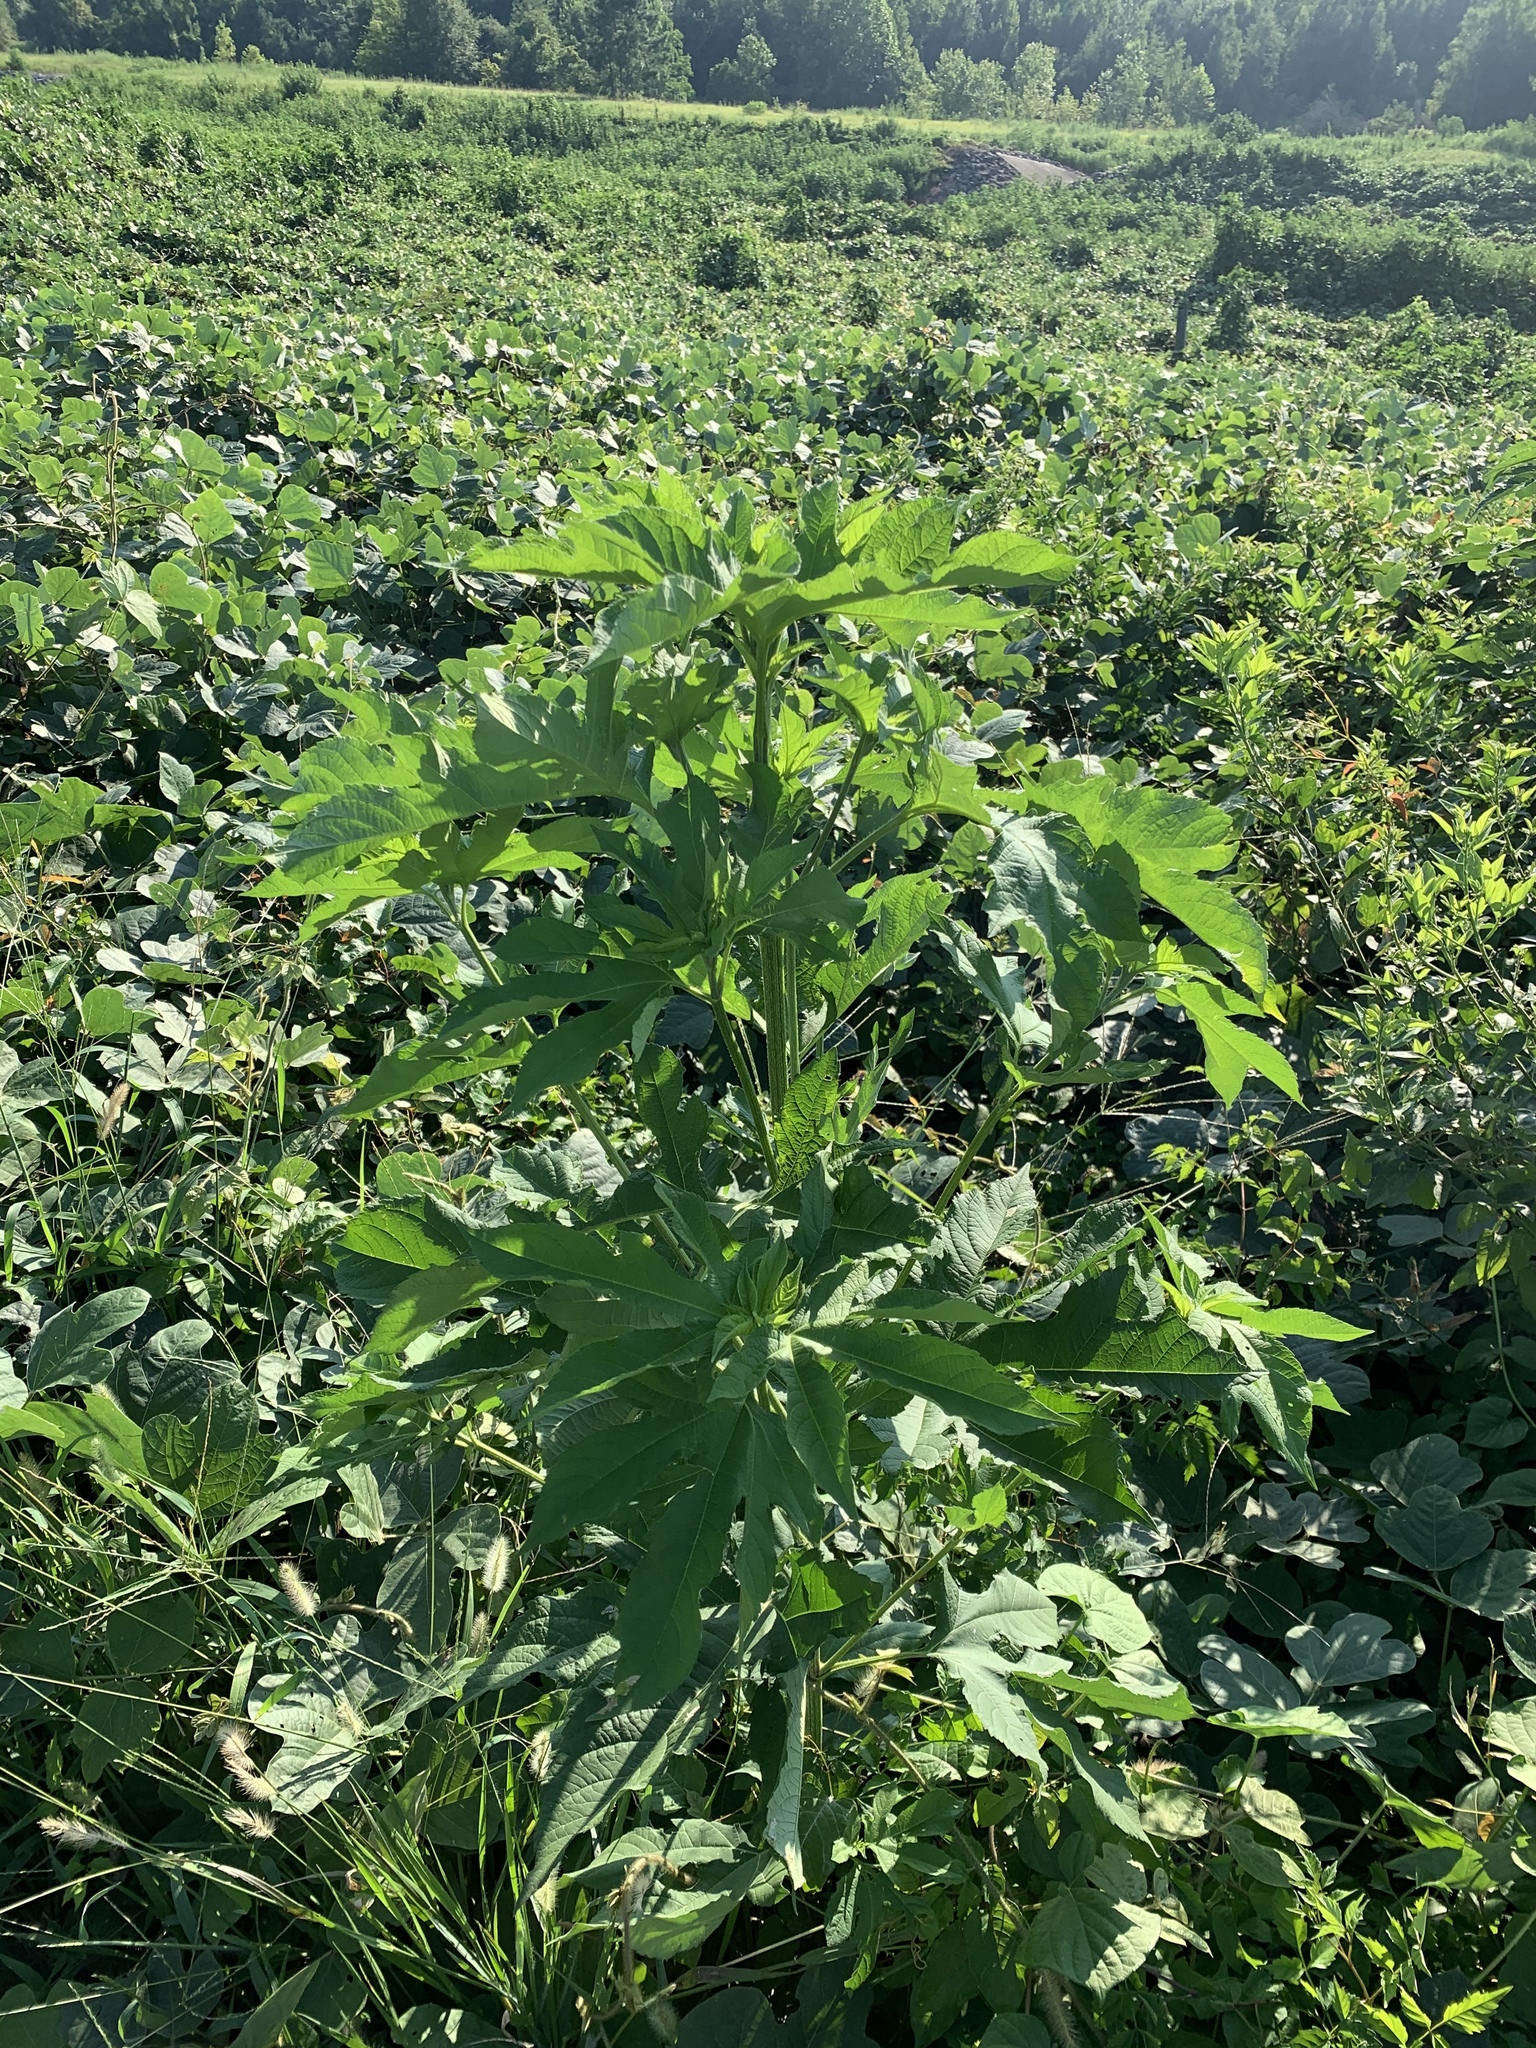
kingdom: Plantae
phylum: Tracheophyta
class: Magnoliopsida
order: Asterales
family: Asteraceae
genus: Ambrosia
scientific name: Ambrosia trifida
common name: Giant ragweed
